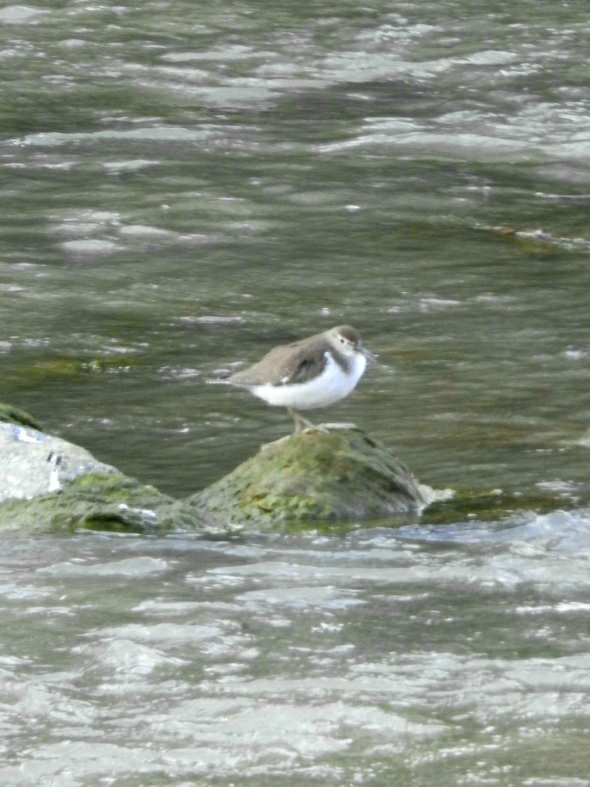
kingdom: Animalia
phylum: Chordata
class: Aves
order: Charadriiformes
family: Scolopacidae
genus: Actitis
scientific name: Actitis hypoleucos
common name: Common sandpiper
